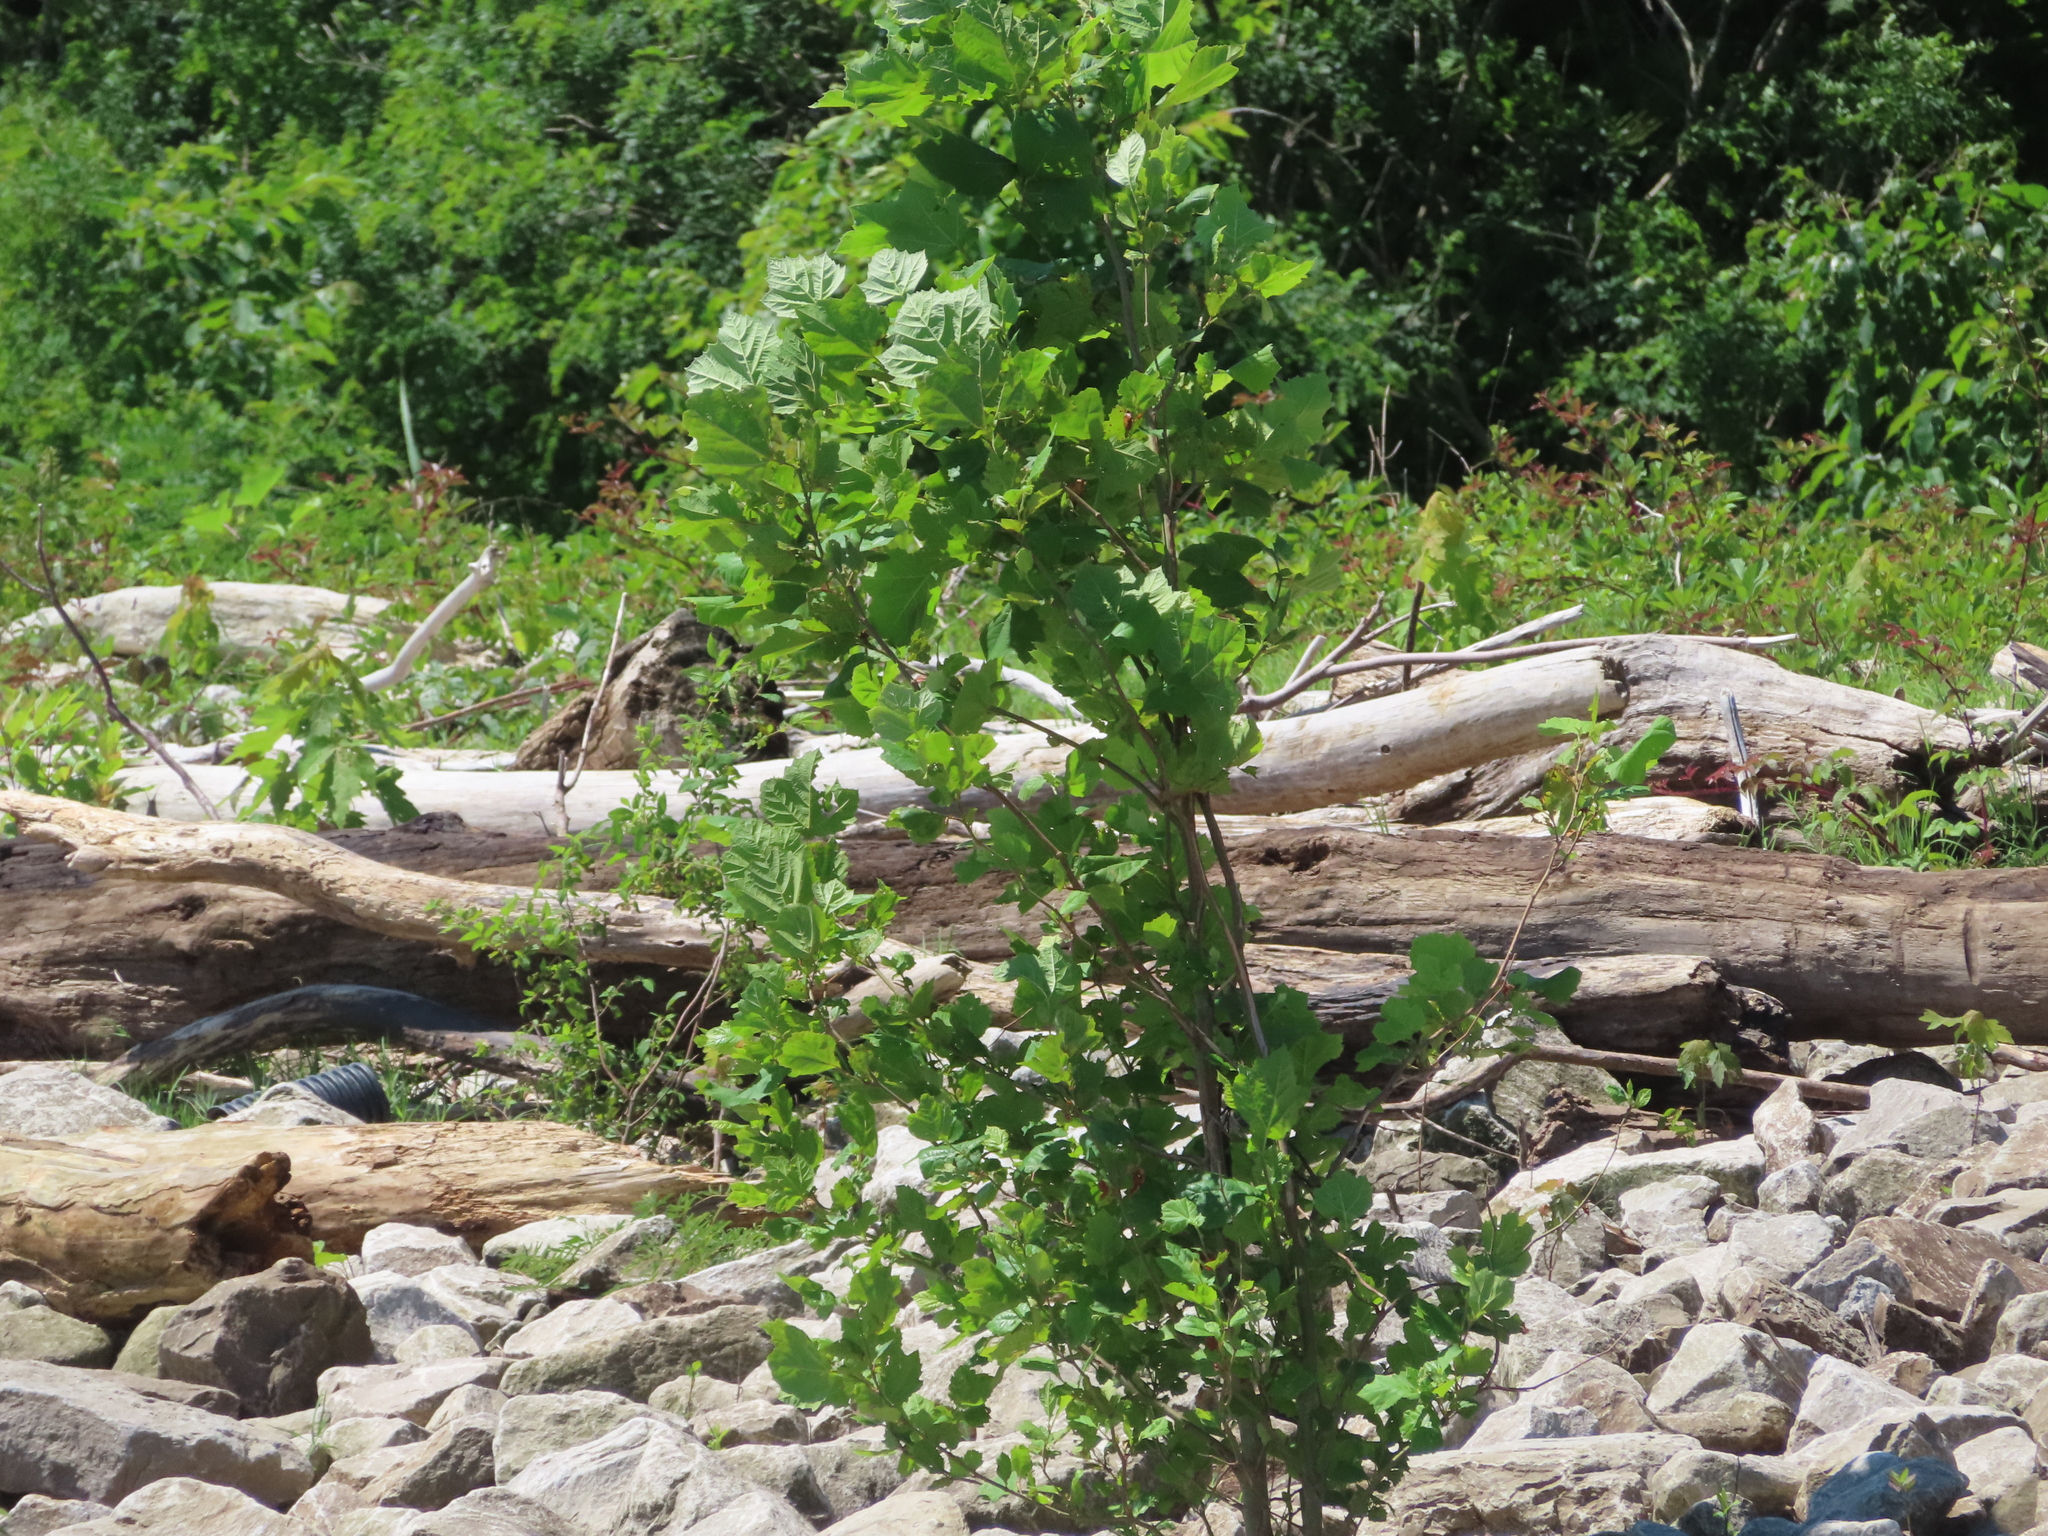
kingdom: Plantae
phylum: Tracheophyta
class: Magnoliopsida
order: Proteales
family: Platanaceae
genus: Platanus
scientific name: Platanus occidentalis
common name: American sycamore
